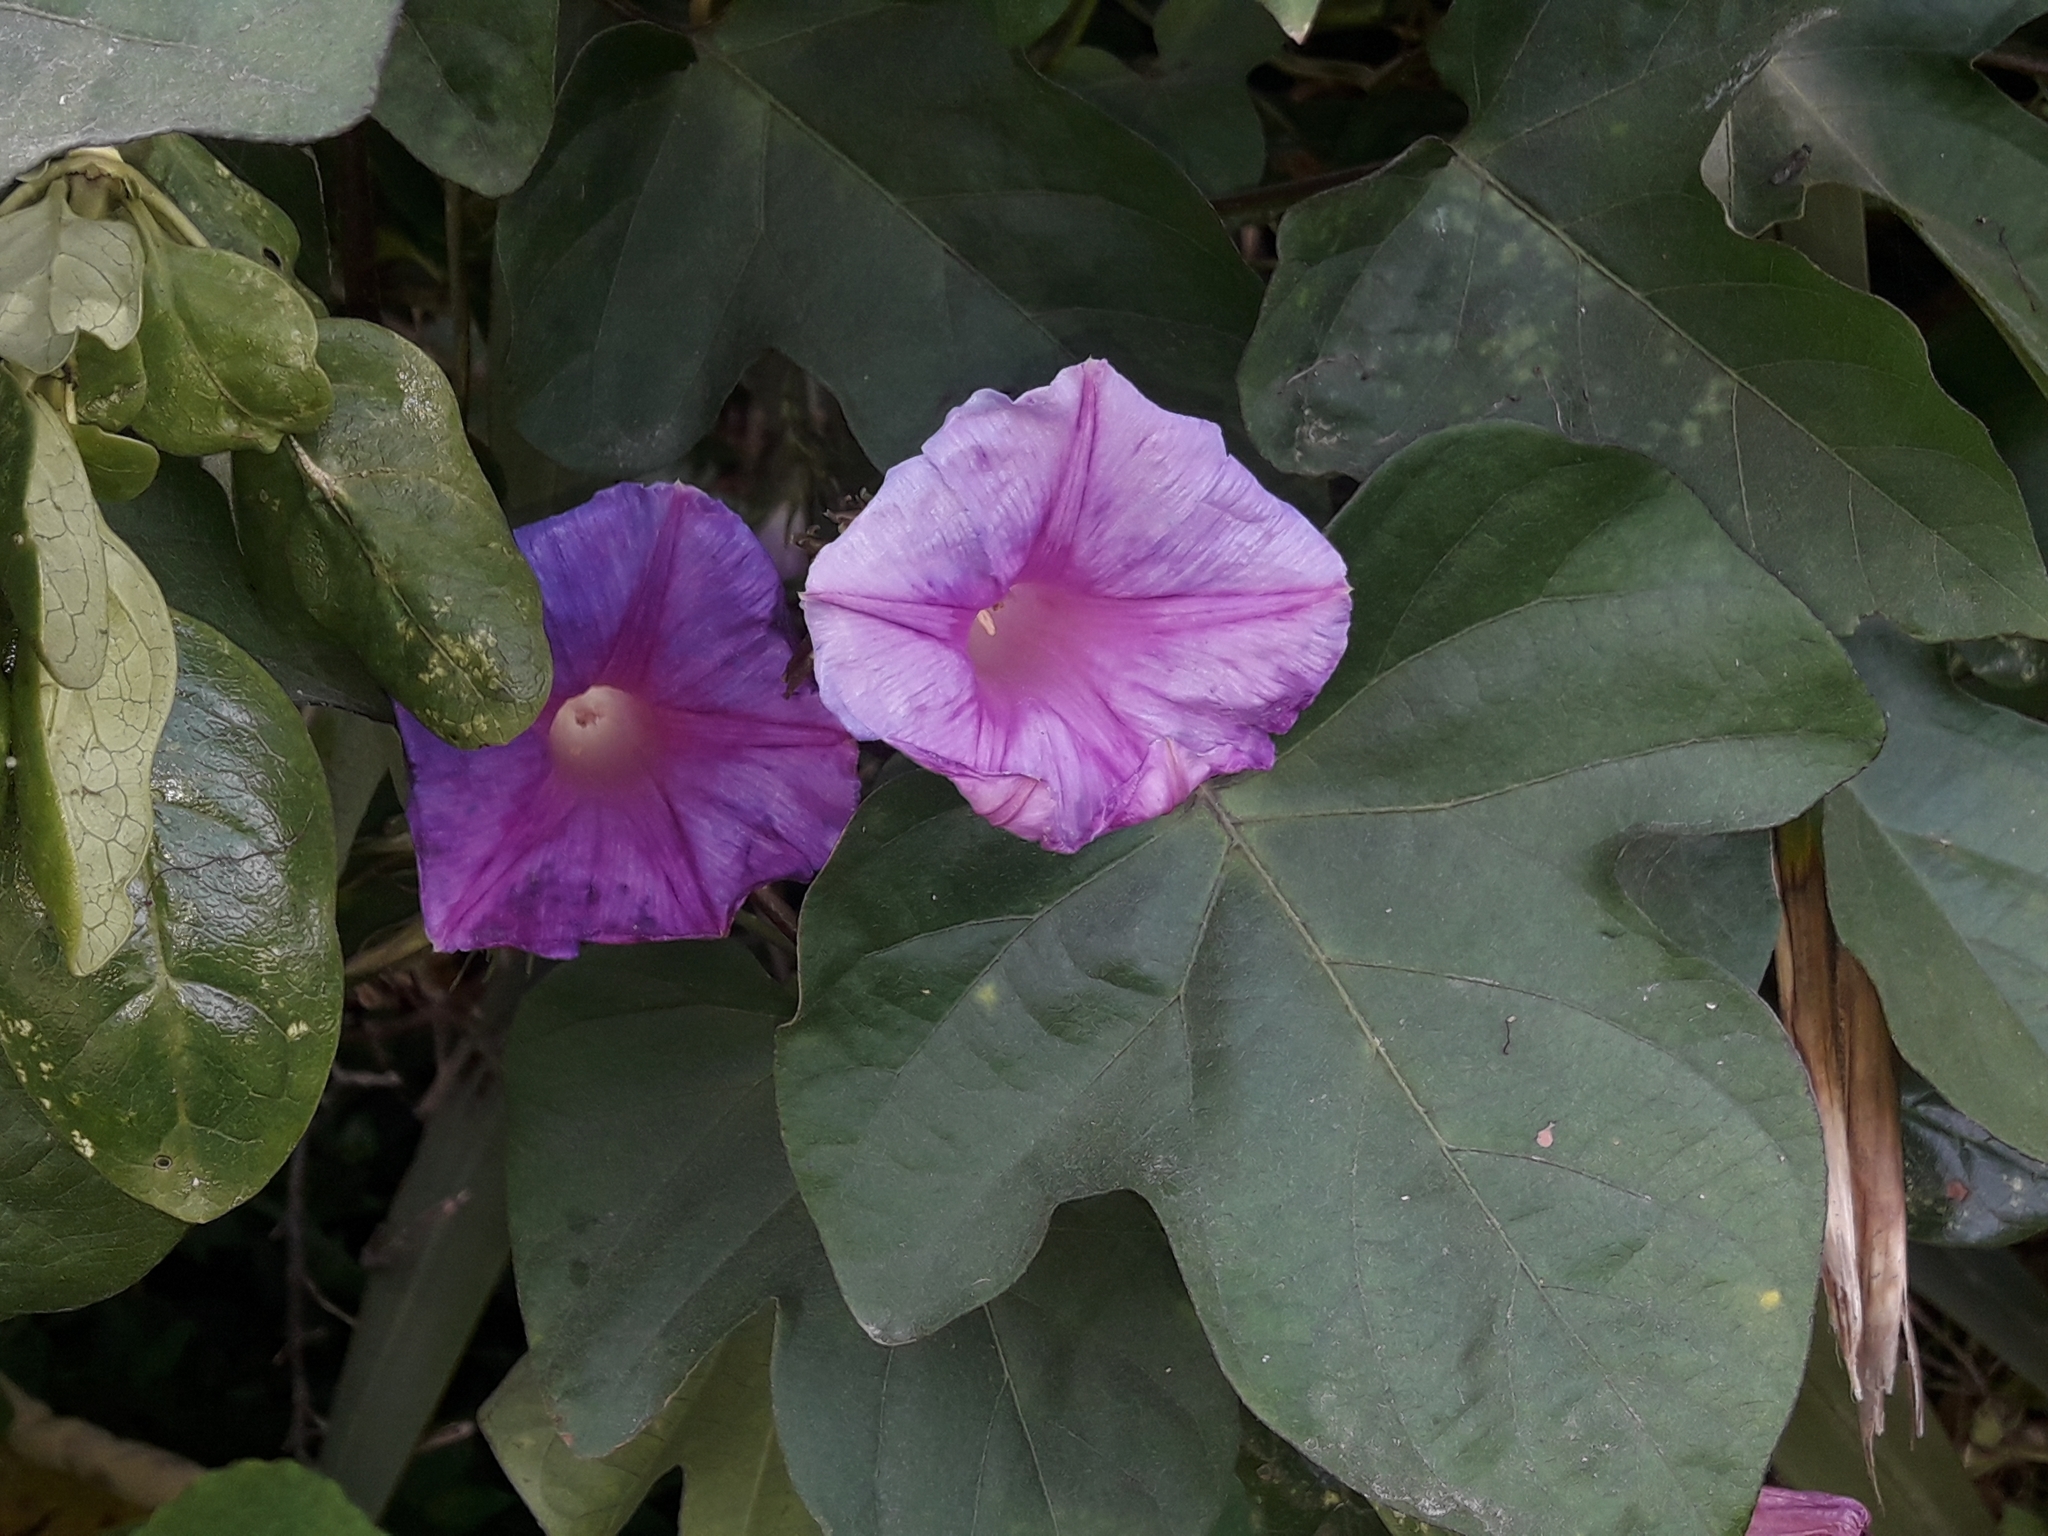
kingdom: Plantae
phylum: Tracheophyta
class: Magnoliopsida
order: Solanales
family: Convolvulaceae
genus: Ipomoea
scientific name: Ipomoea indica
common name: Blue dawnflower
